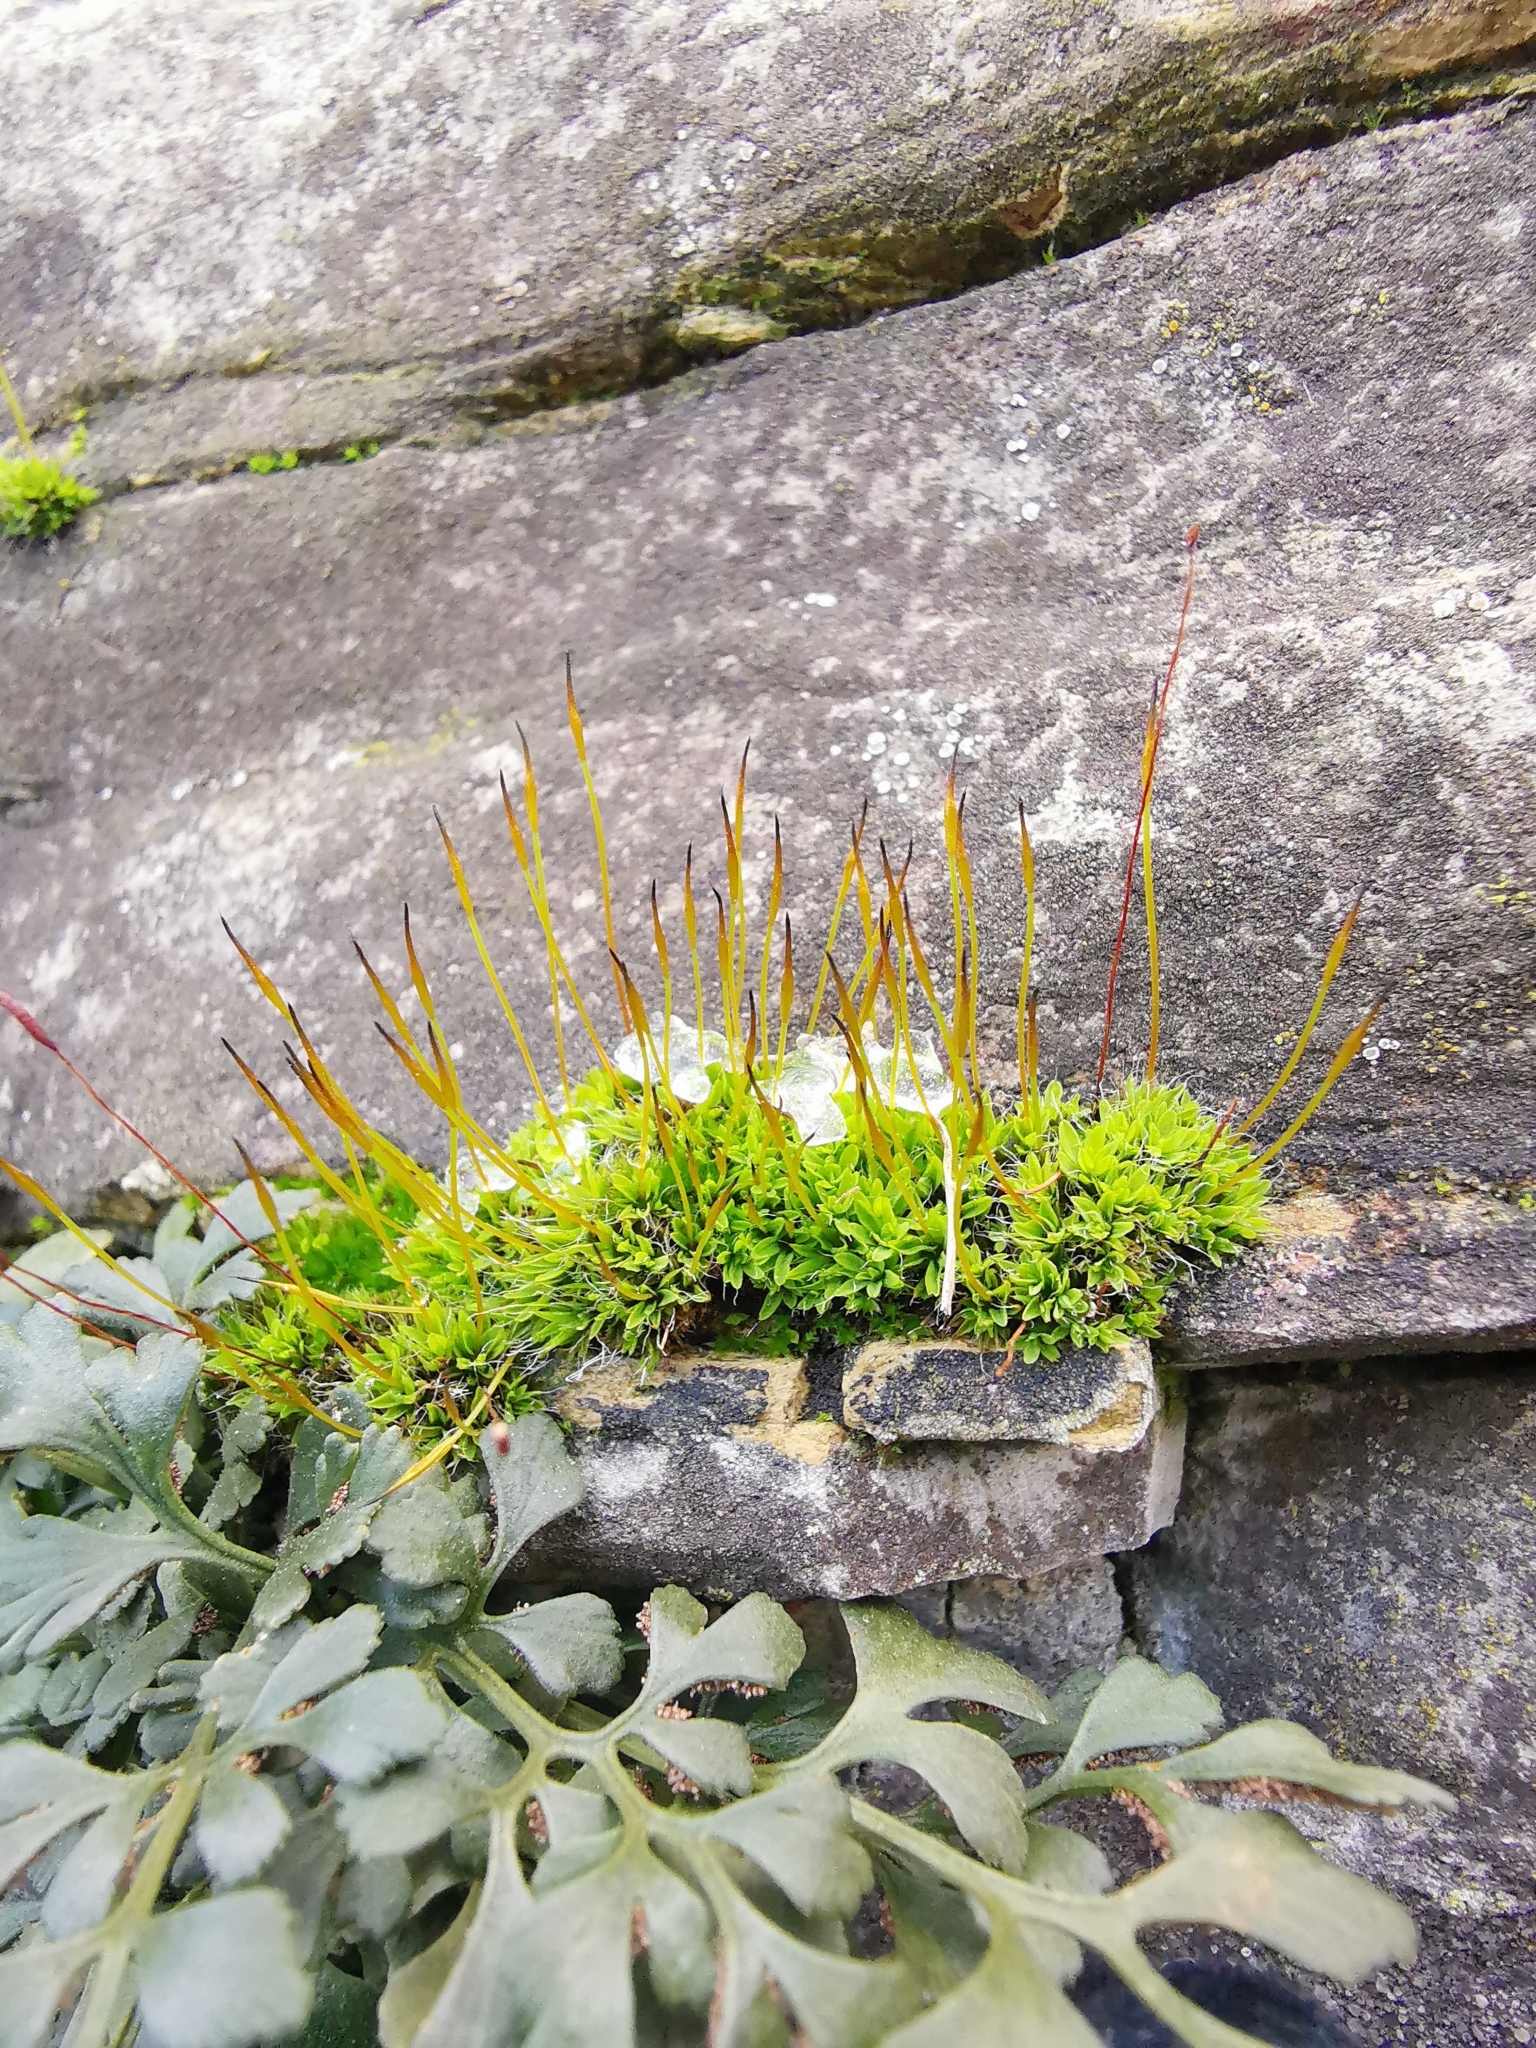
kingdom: Plantae
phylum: Bryophyta
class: Bryopsida
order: Pottiales
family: Pottiaceae
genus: Tortula
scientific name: Tortula muralis
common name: Wall screw-moss
